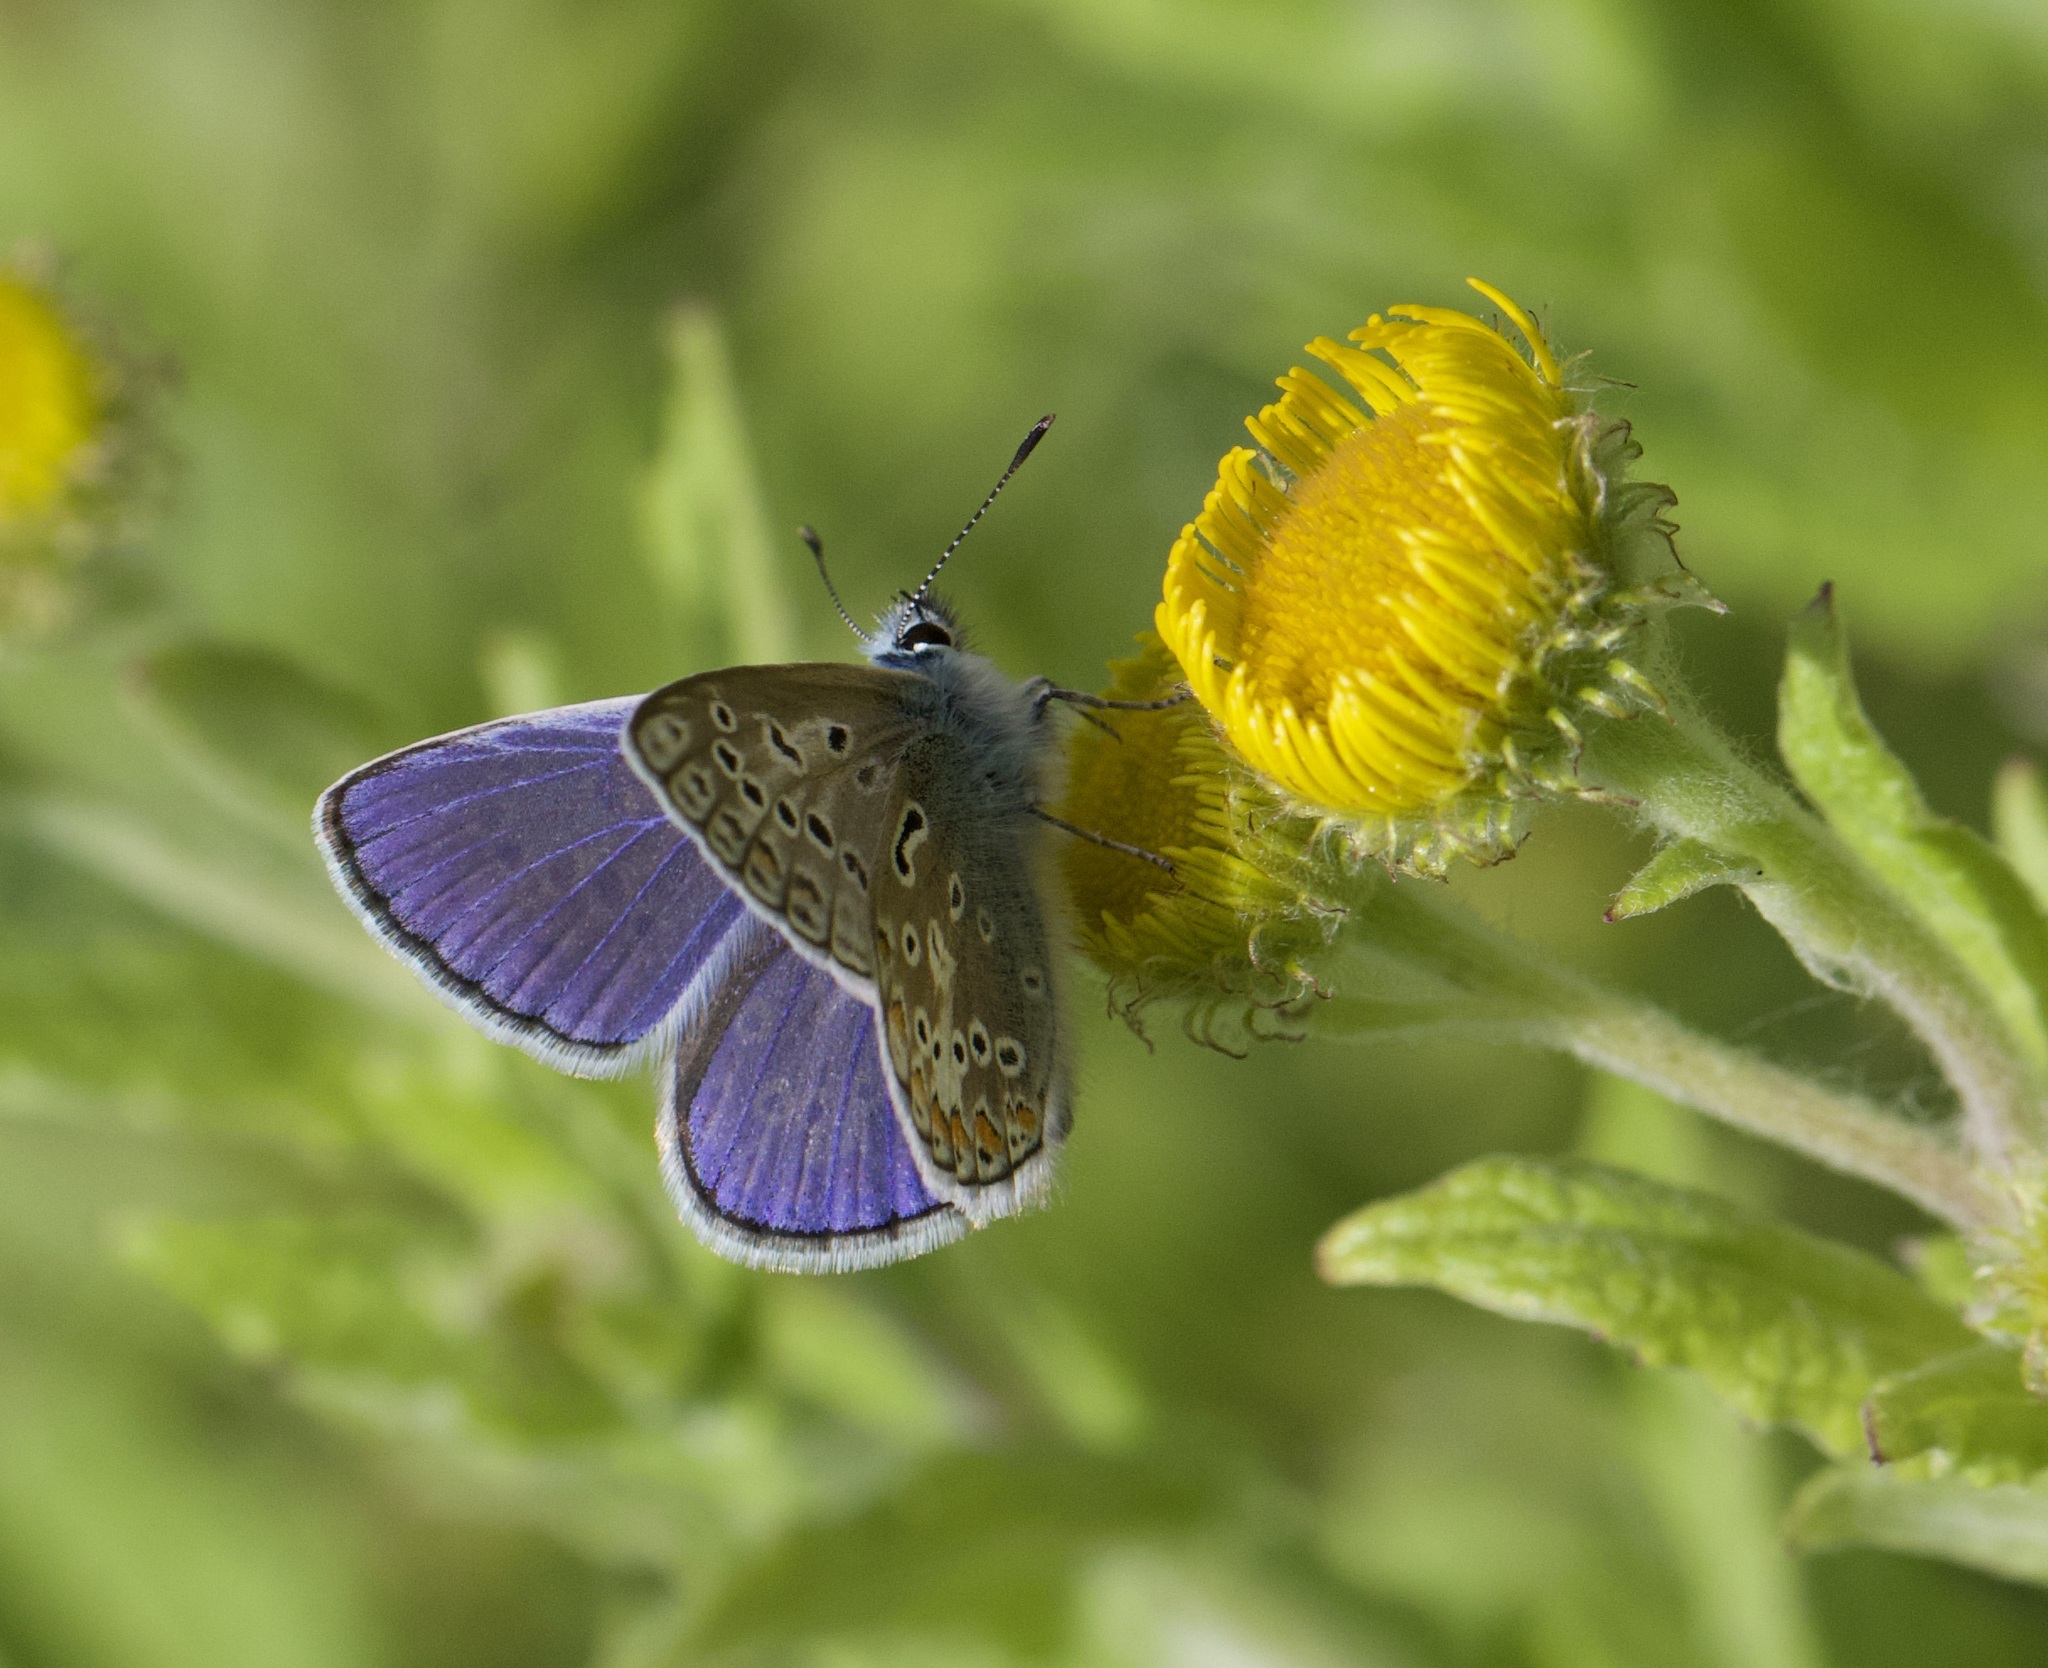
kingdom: Animalia
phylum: Arthropoda
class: Insecta
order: Lepidoptera
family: Lycaenidae
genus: Polyommatus
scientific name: Polyommatus icarus
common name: Common blue
